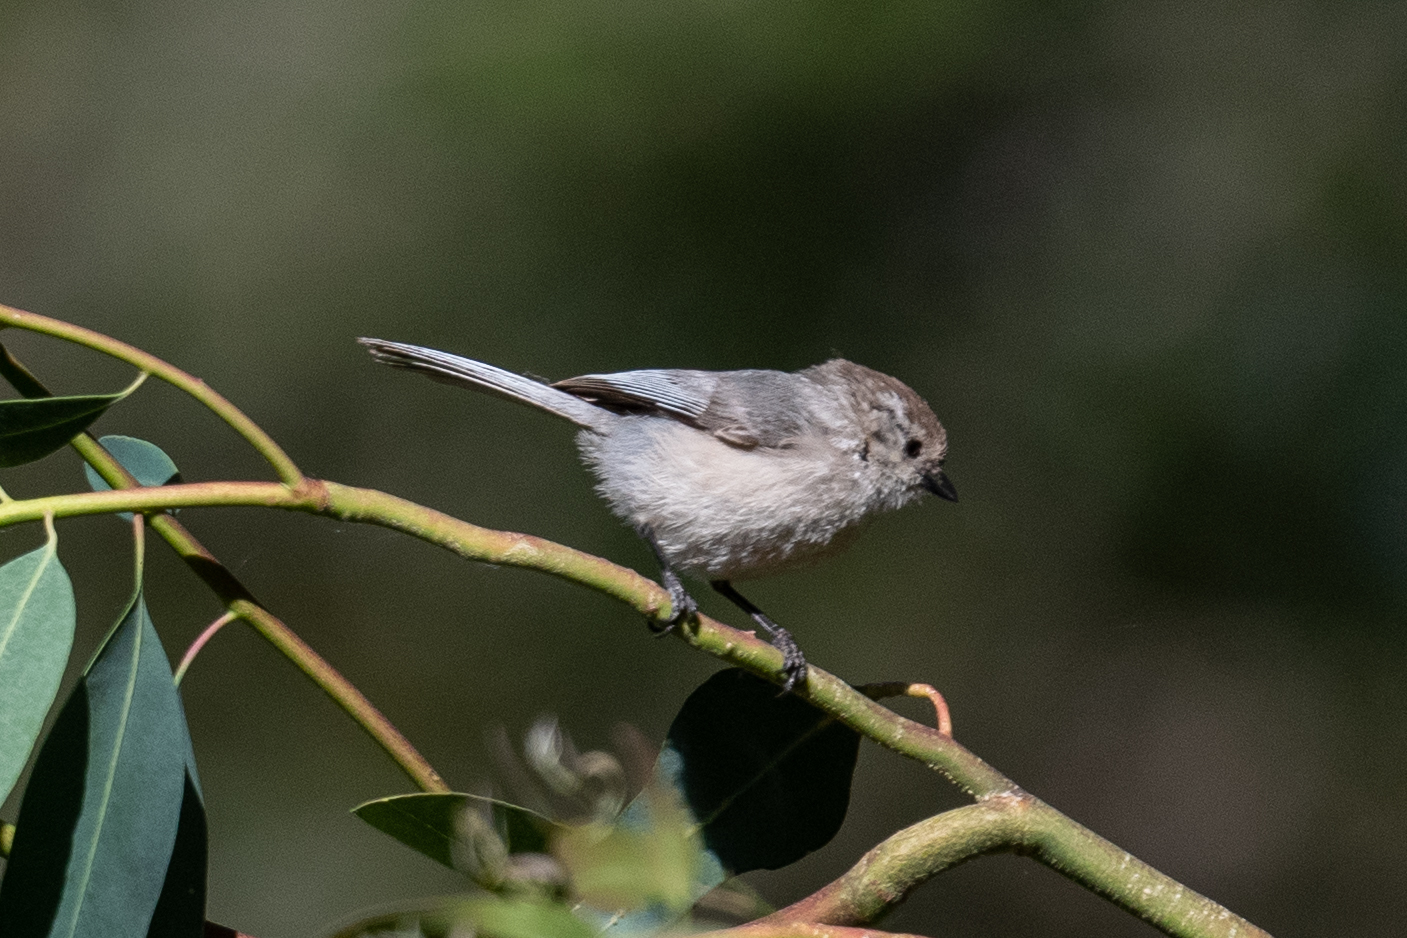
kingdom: Animalia
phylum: Chordata
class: Aves
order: Passeriformes
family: Aegithalidae
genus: Psaltriparus
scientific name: Psaltriparus minimus
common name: American bushtit
